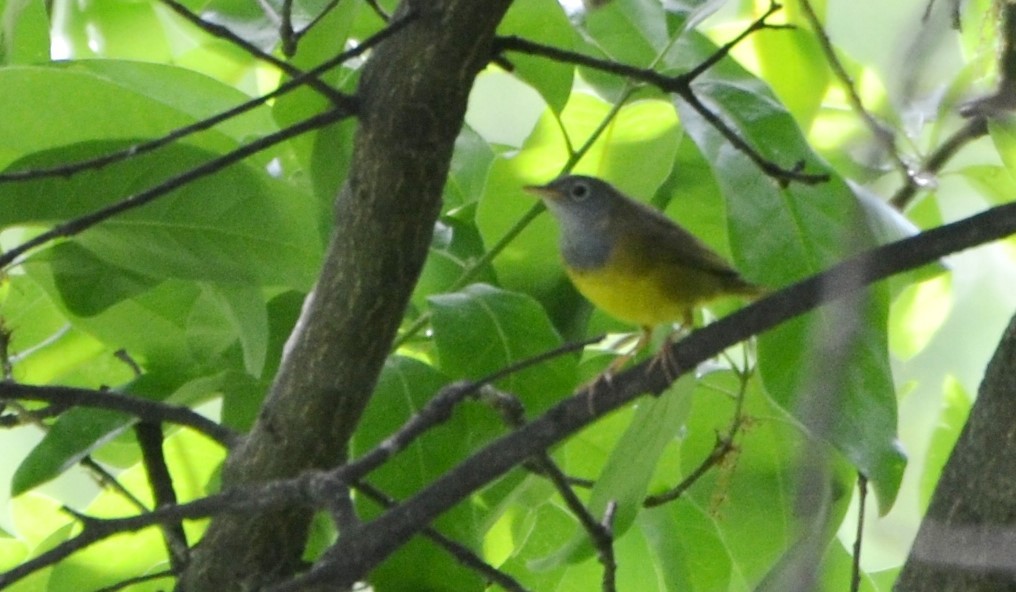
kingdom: Animalia
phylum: Chordata
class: Aves
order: Passeriformes
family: Parulidae
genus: Oporornis
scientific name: Oporornis agilis
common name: Connecticut warbler
